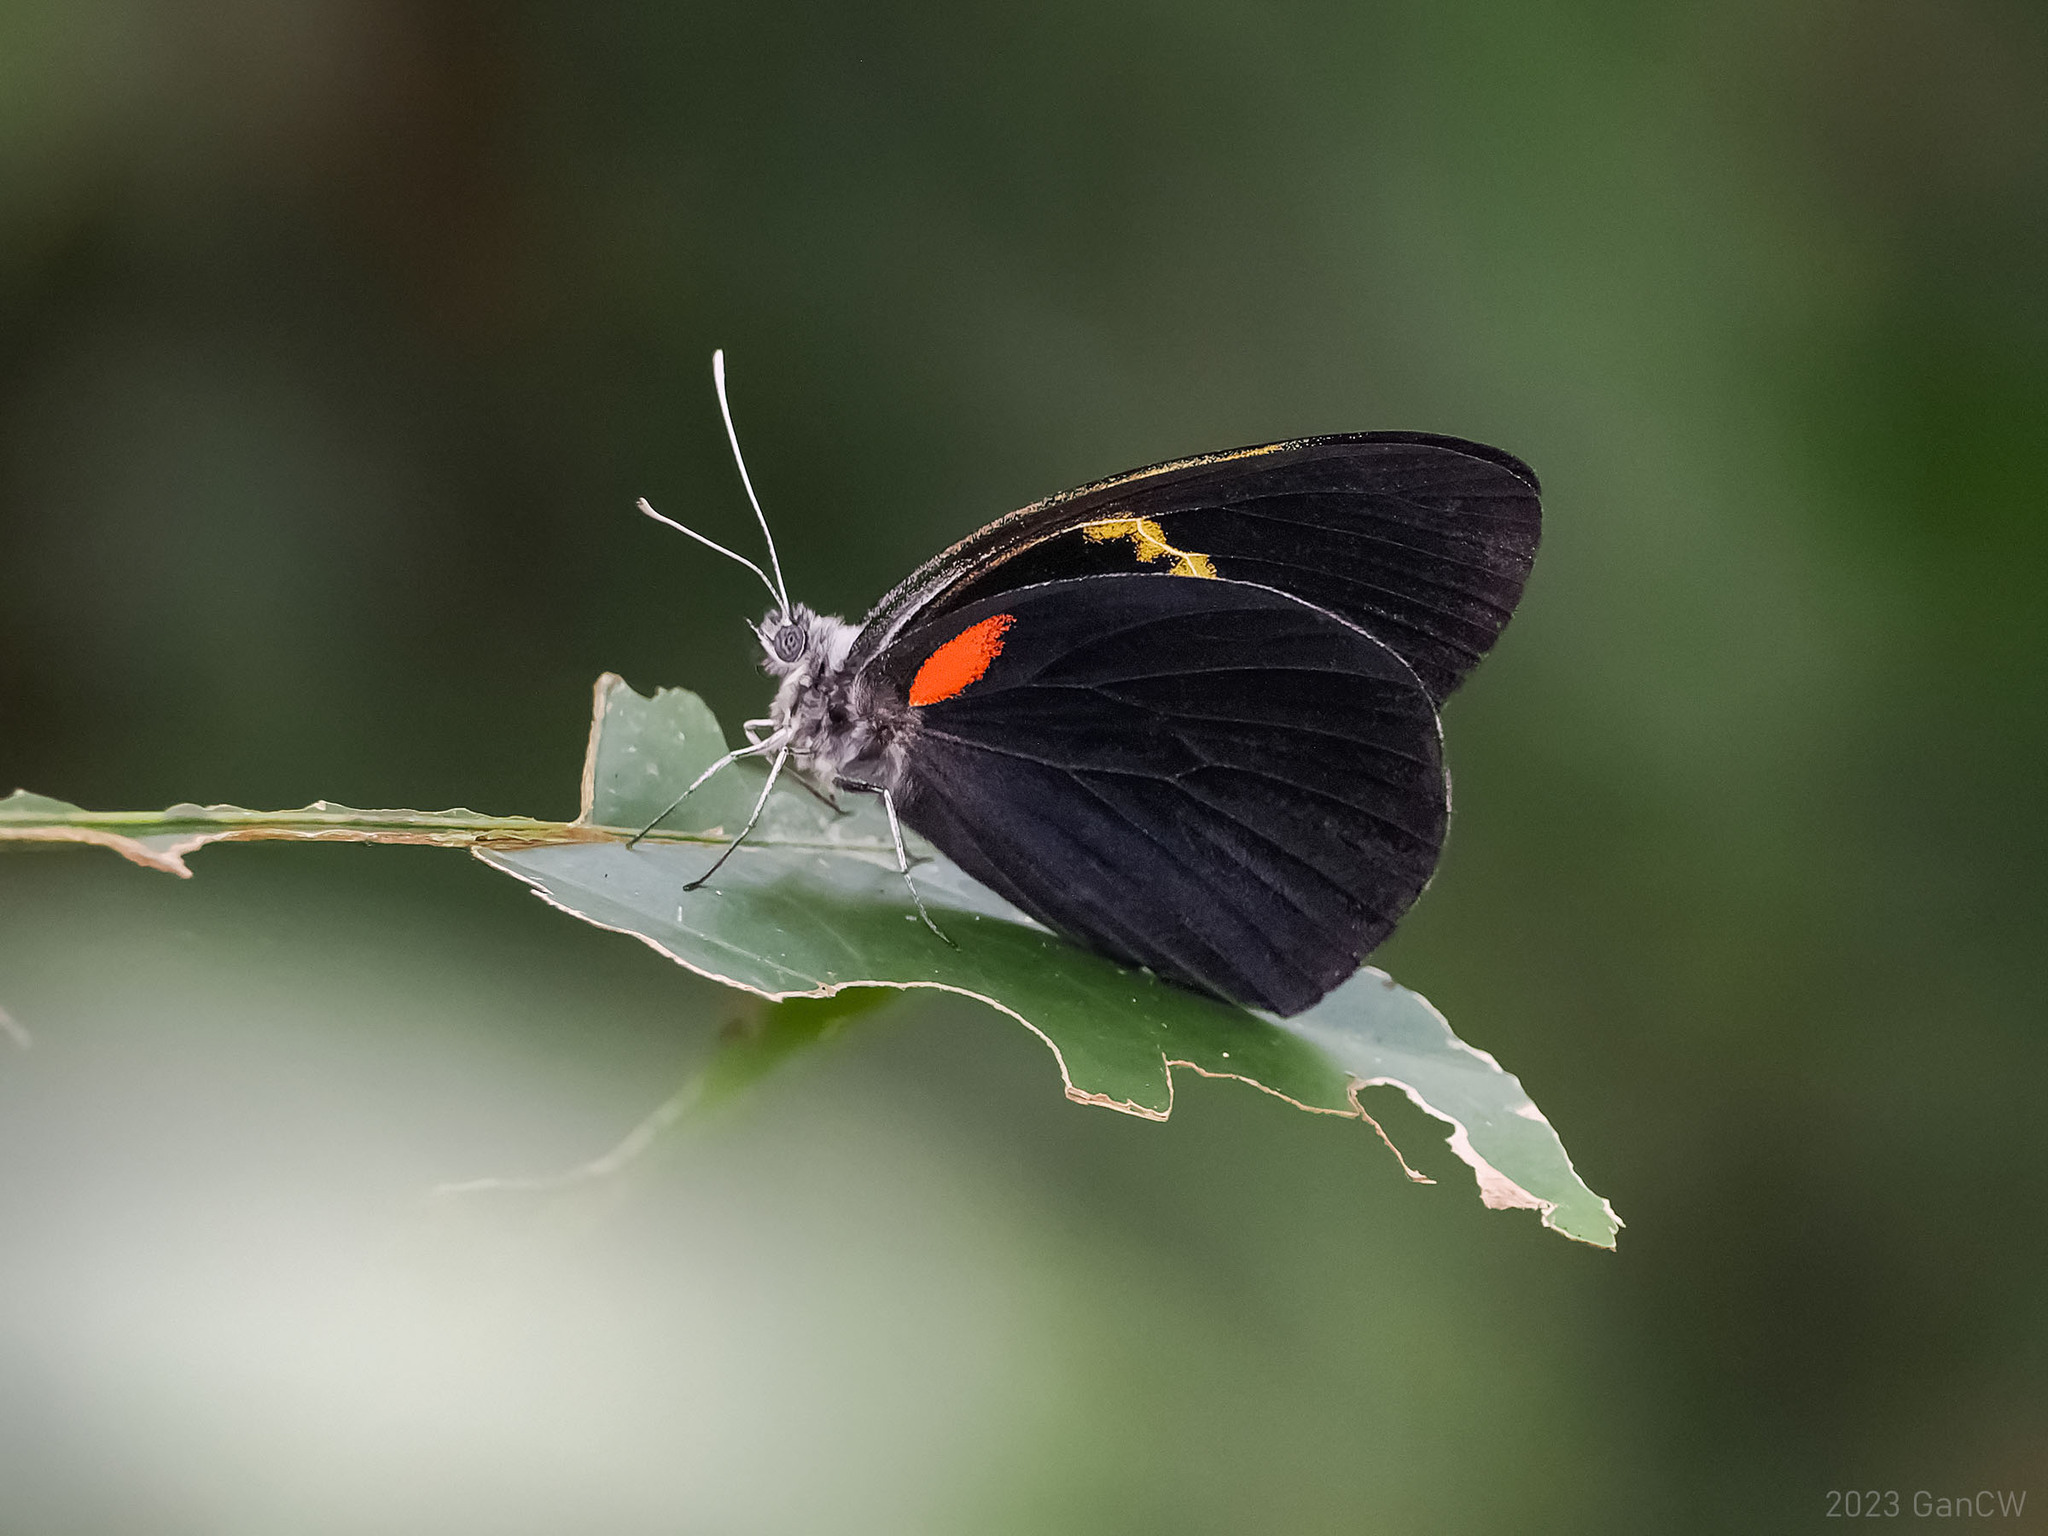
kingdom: Animalia
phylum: Arthropoda
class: Insecta
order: Lepidoptera
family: Pieridae
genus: Delias
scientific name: Delias aruna
